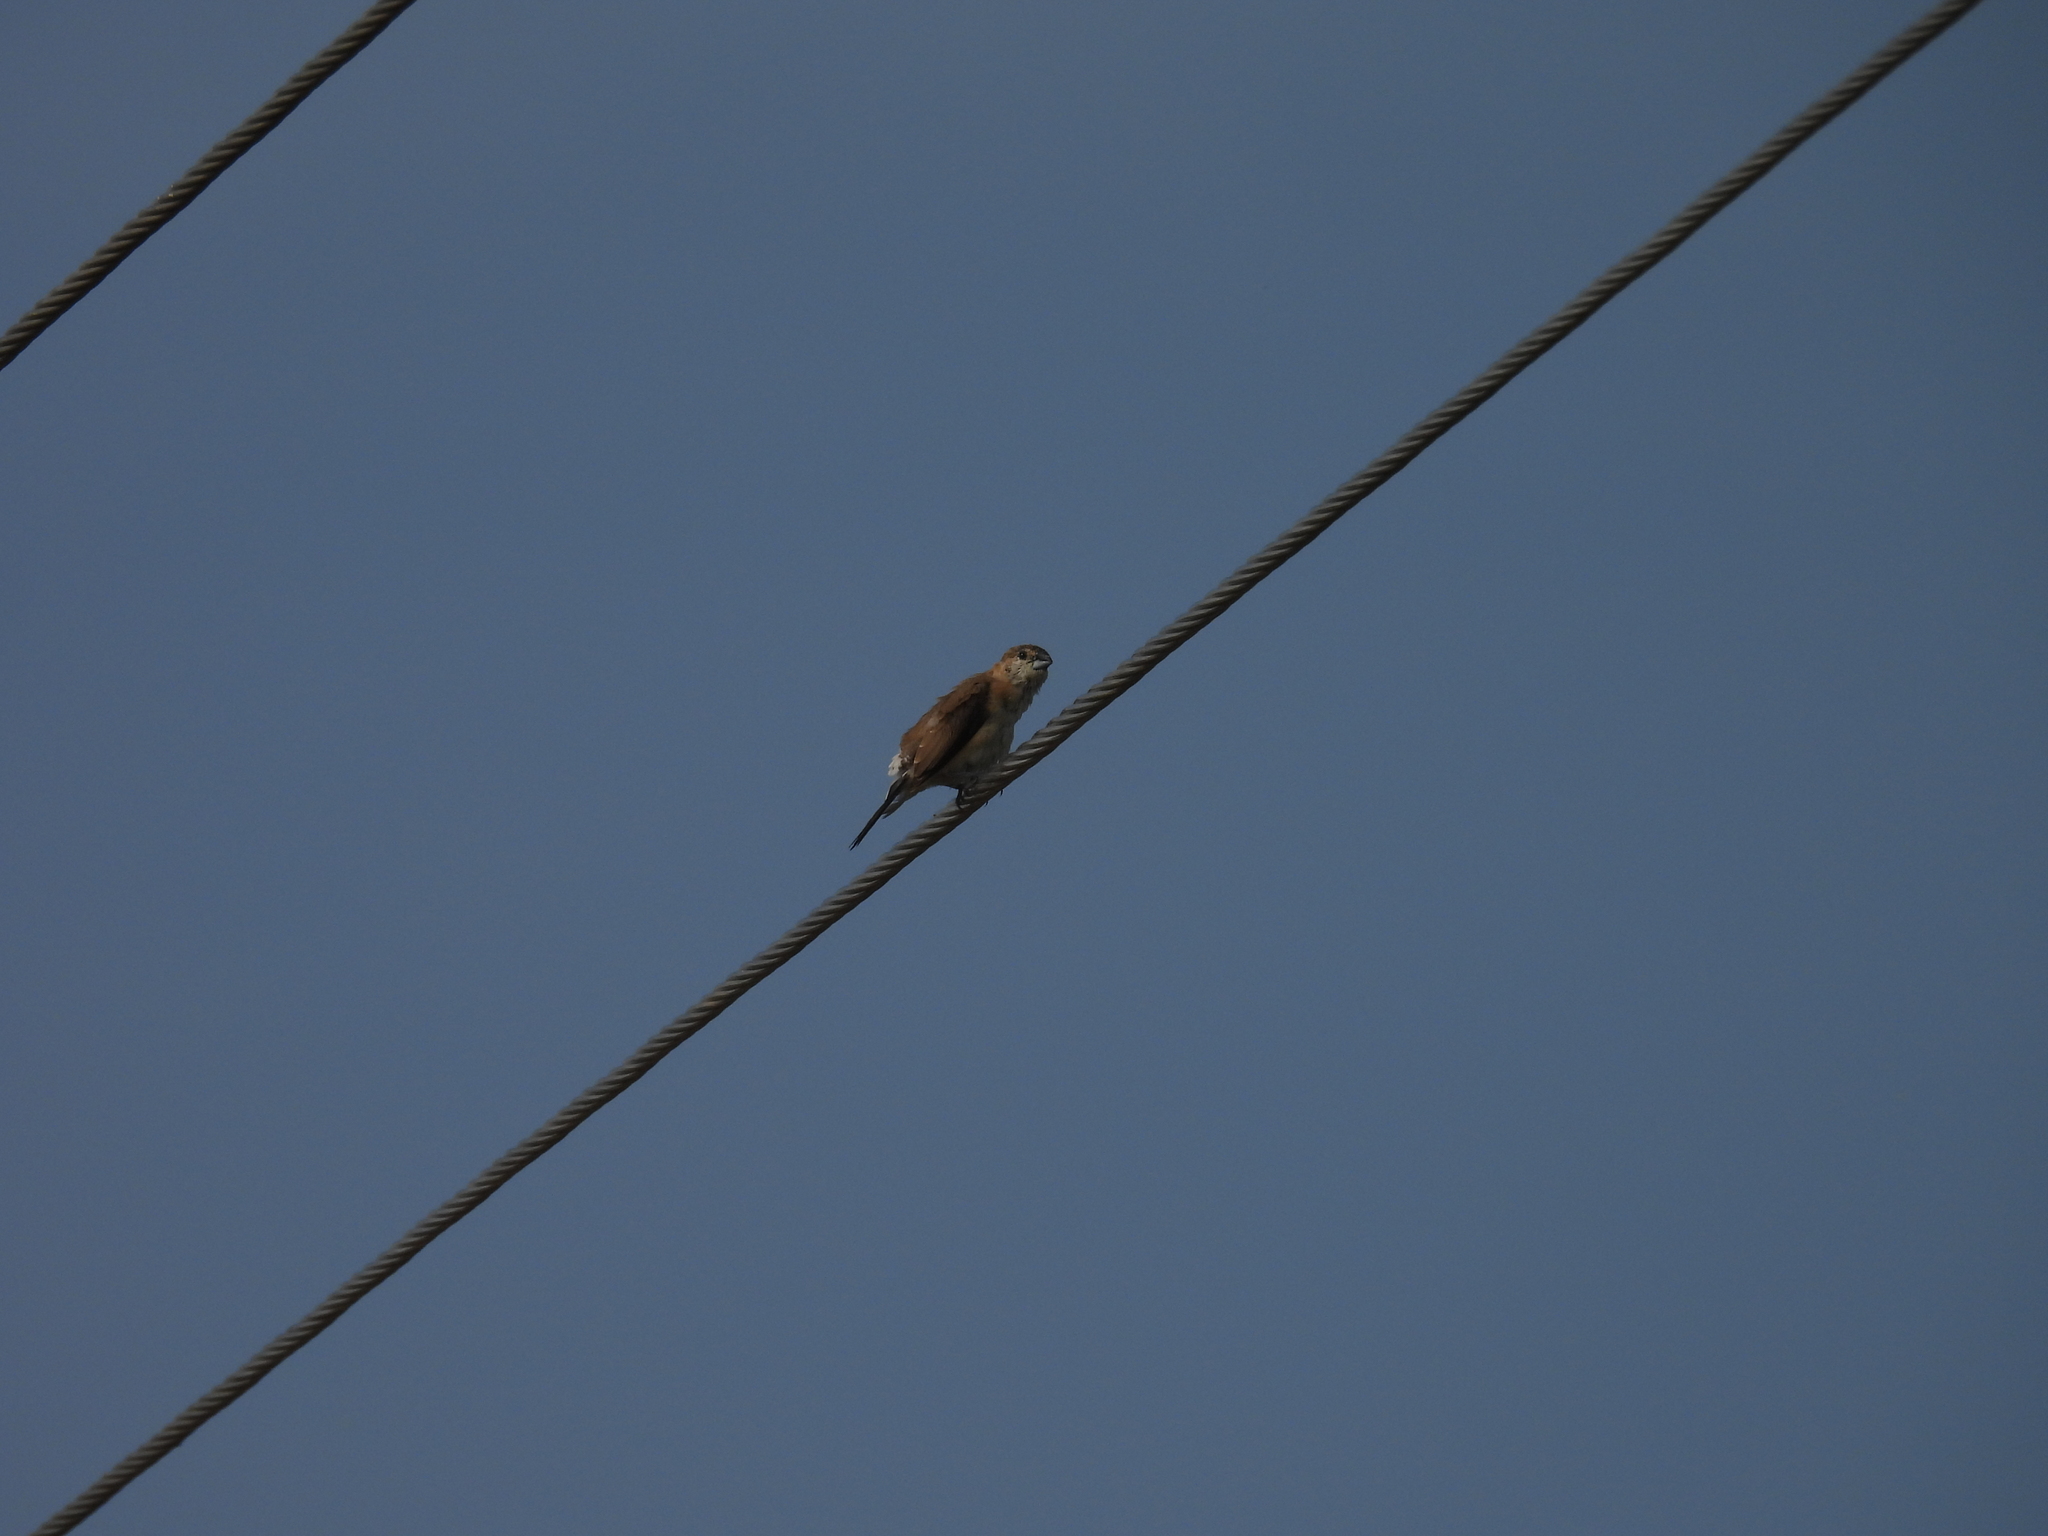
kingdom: Animalia
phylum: Chordata
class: Aves
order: Passeriformes
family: Estrildidae
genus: Euodice
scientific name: Euodice malabarica
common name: Indian silverbill
